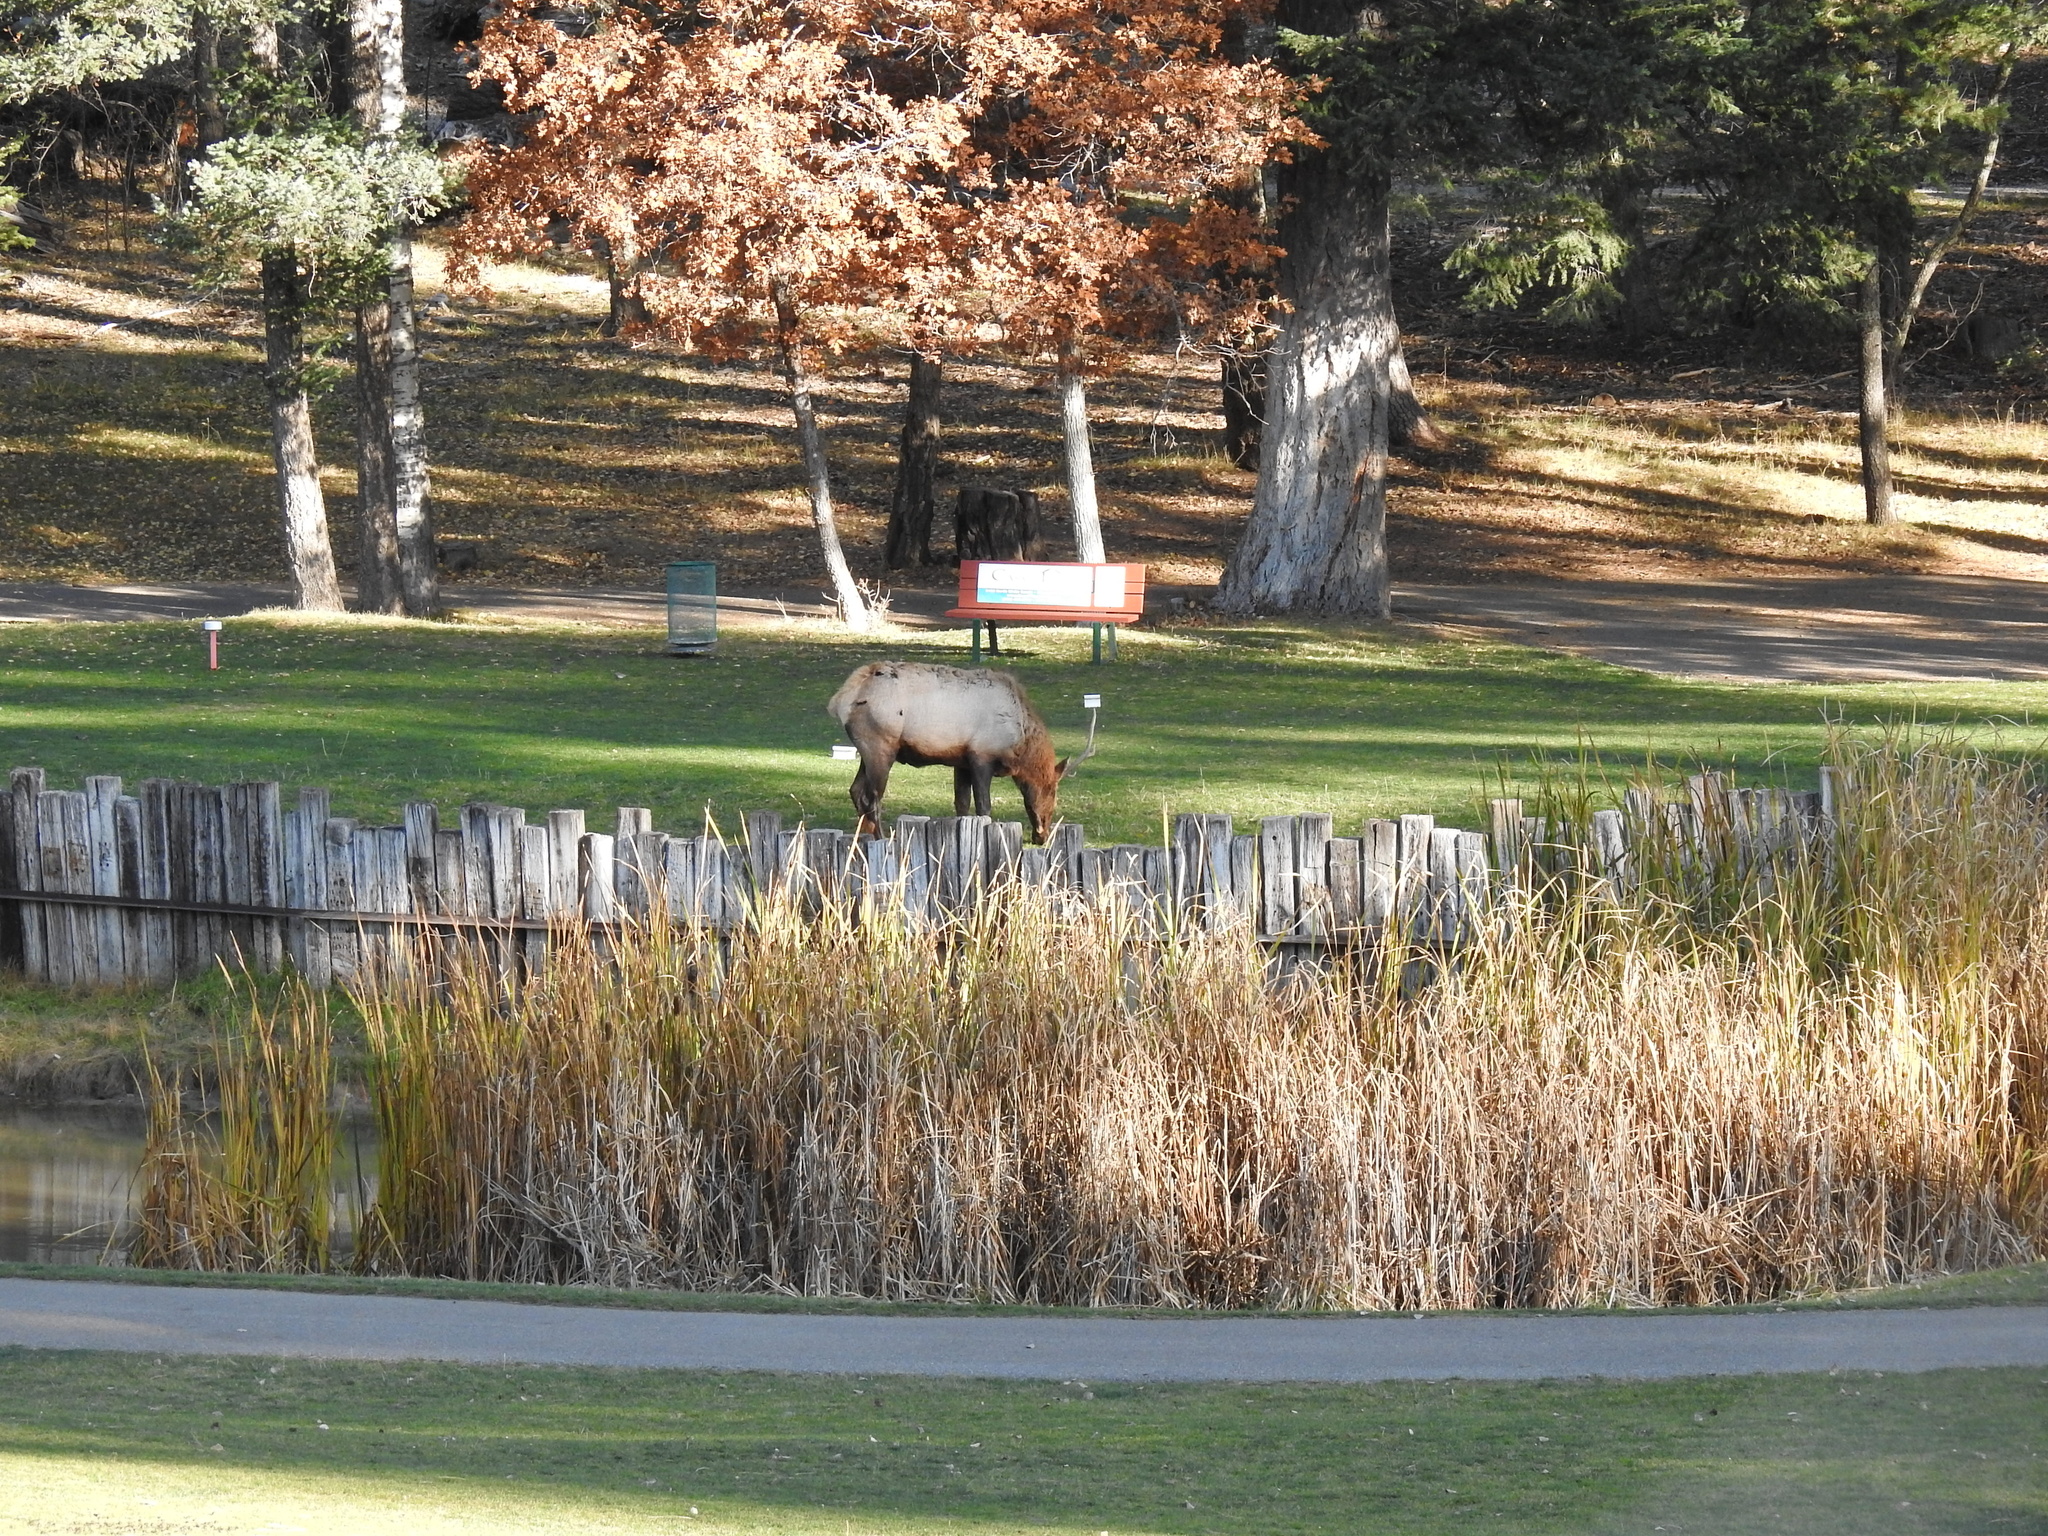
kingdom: Animalia
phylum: Chordata
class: Mammalia
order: Artiodactyla
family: Cervidae
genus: Cervus
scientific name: Cervus elaphus
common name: Red deer
